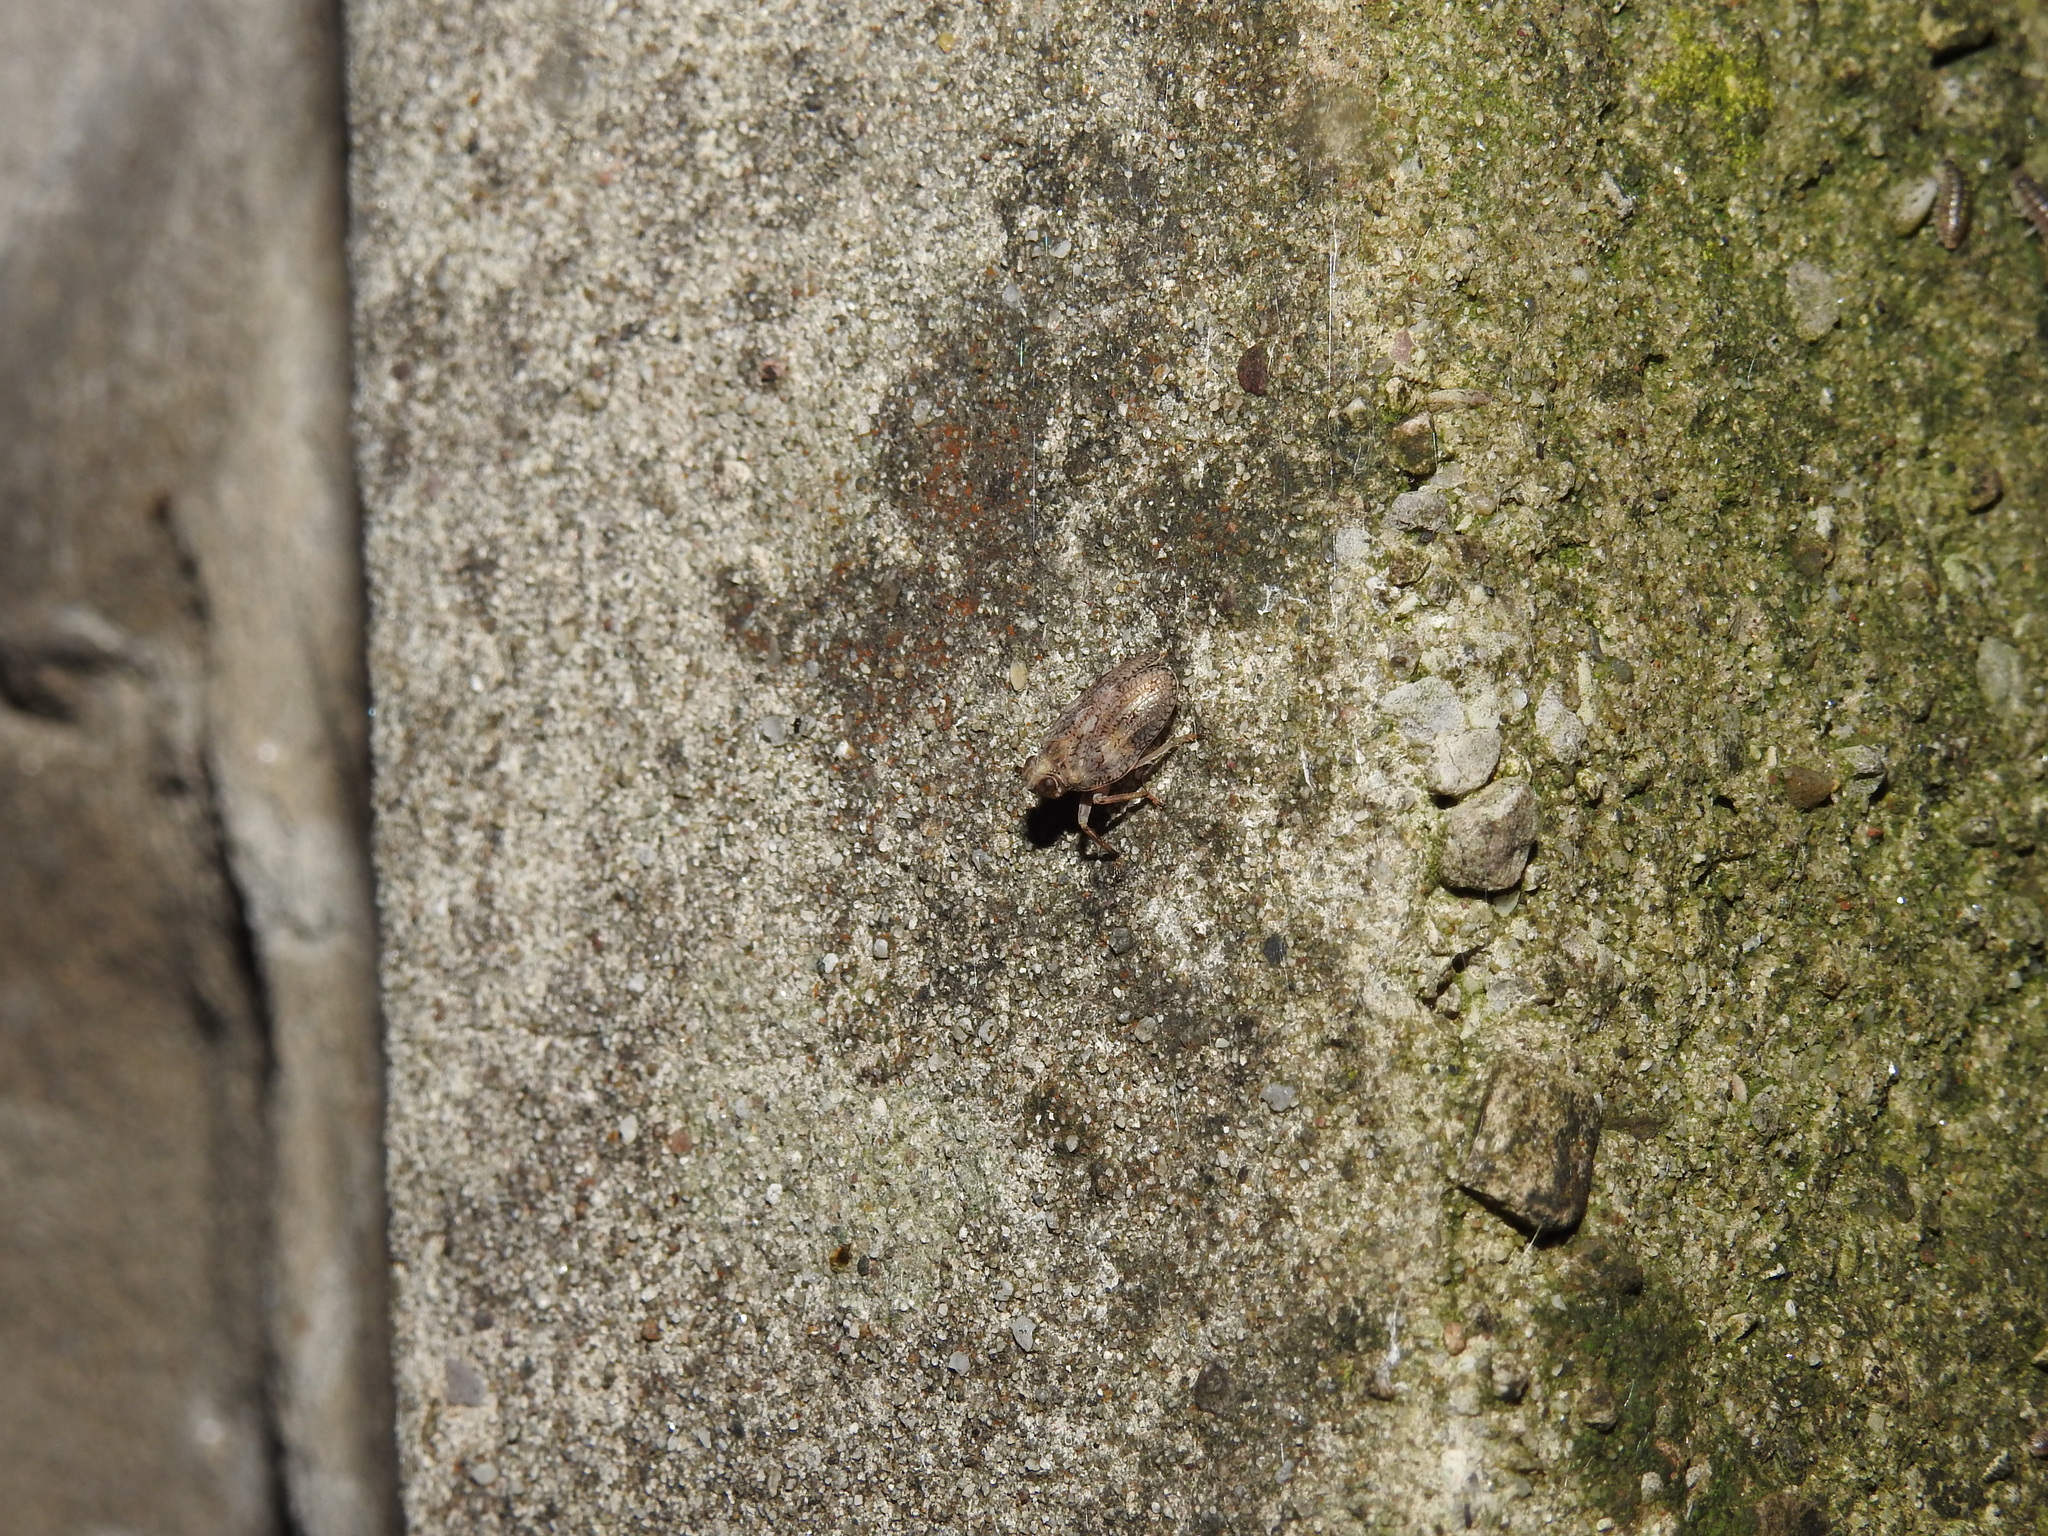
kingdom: Animalia
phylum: Arthropoda
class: Insecta
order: Hemiptera
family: Issidae
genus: Issus
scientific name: Issus coleoptratus
